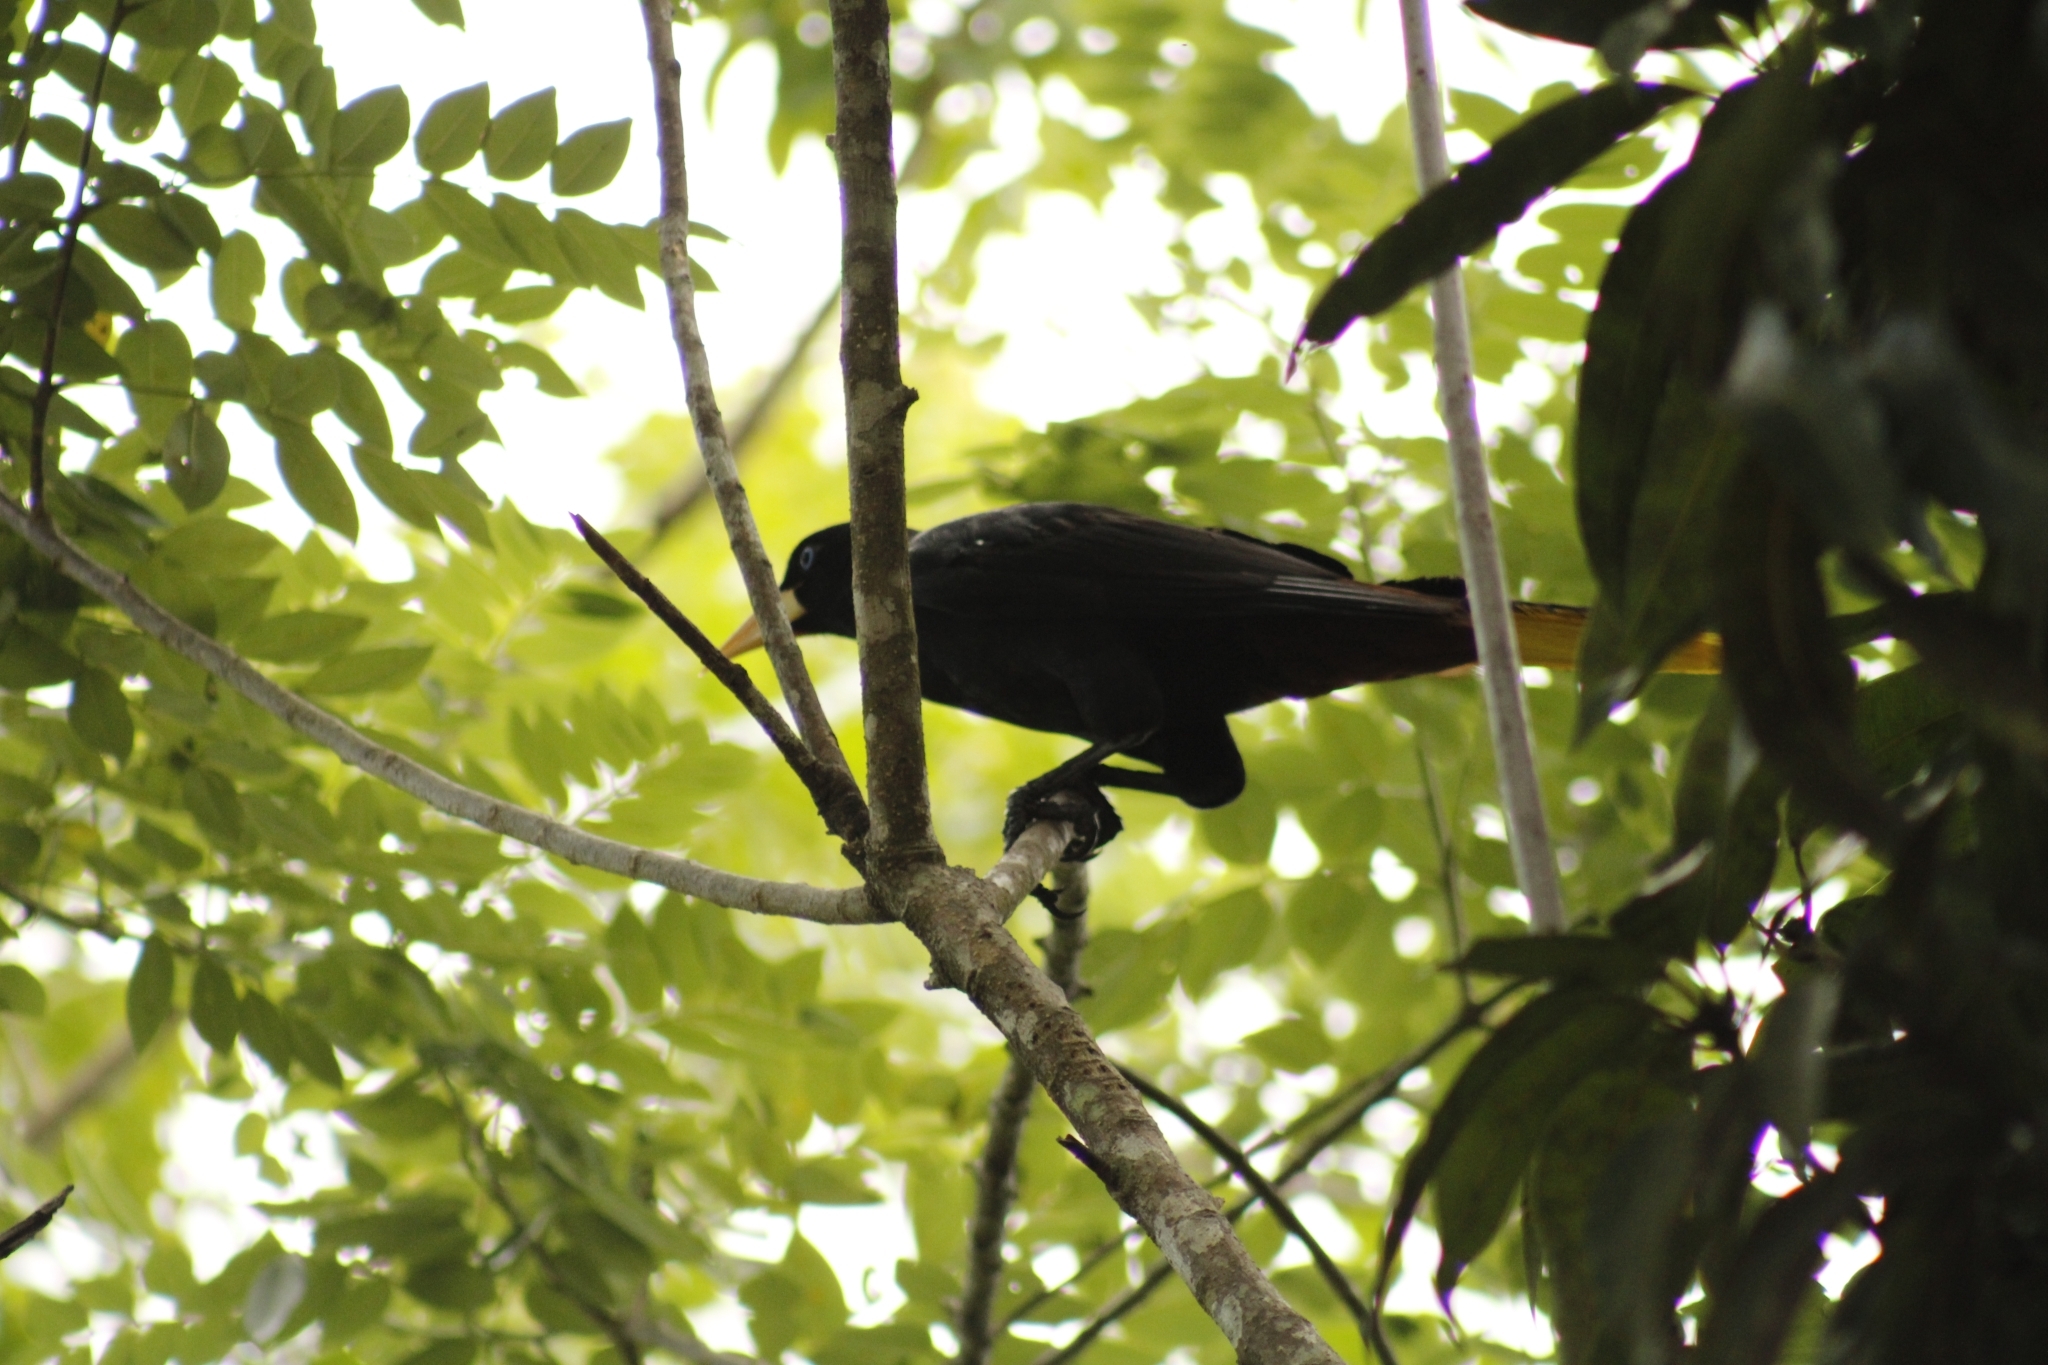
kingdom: Animalia
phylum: Chordata
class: Aves
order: Passeriformes
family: Icteridae
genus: Psarocolius
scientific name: Psarocolius decumanus
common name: Crested oropendola
